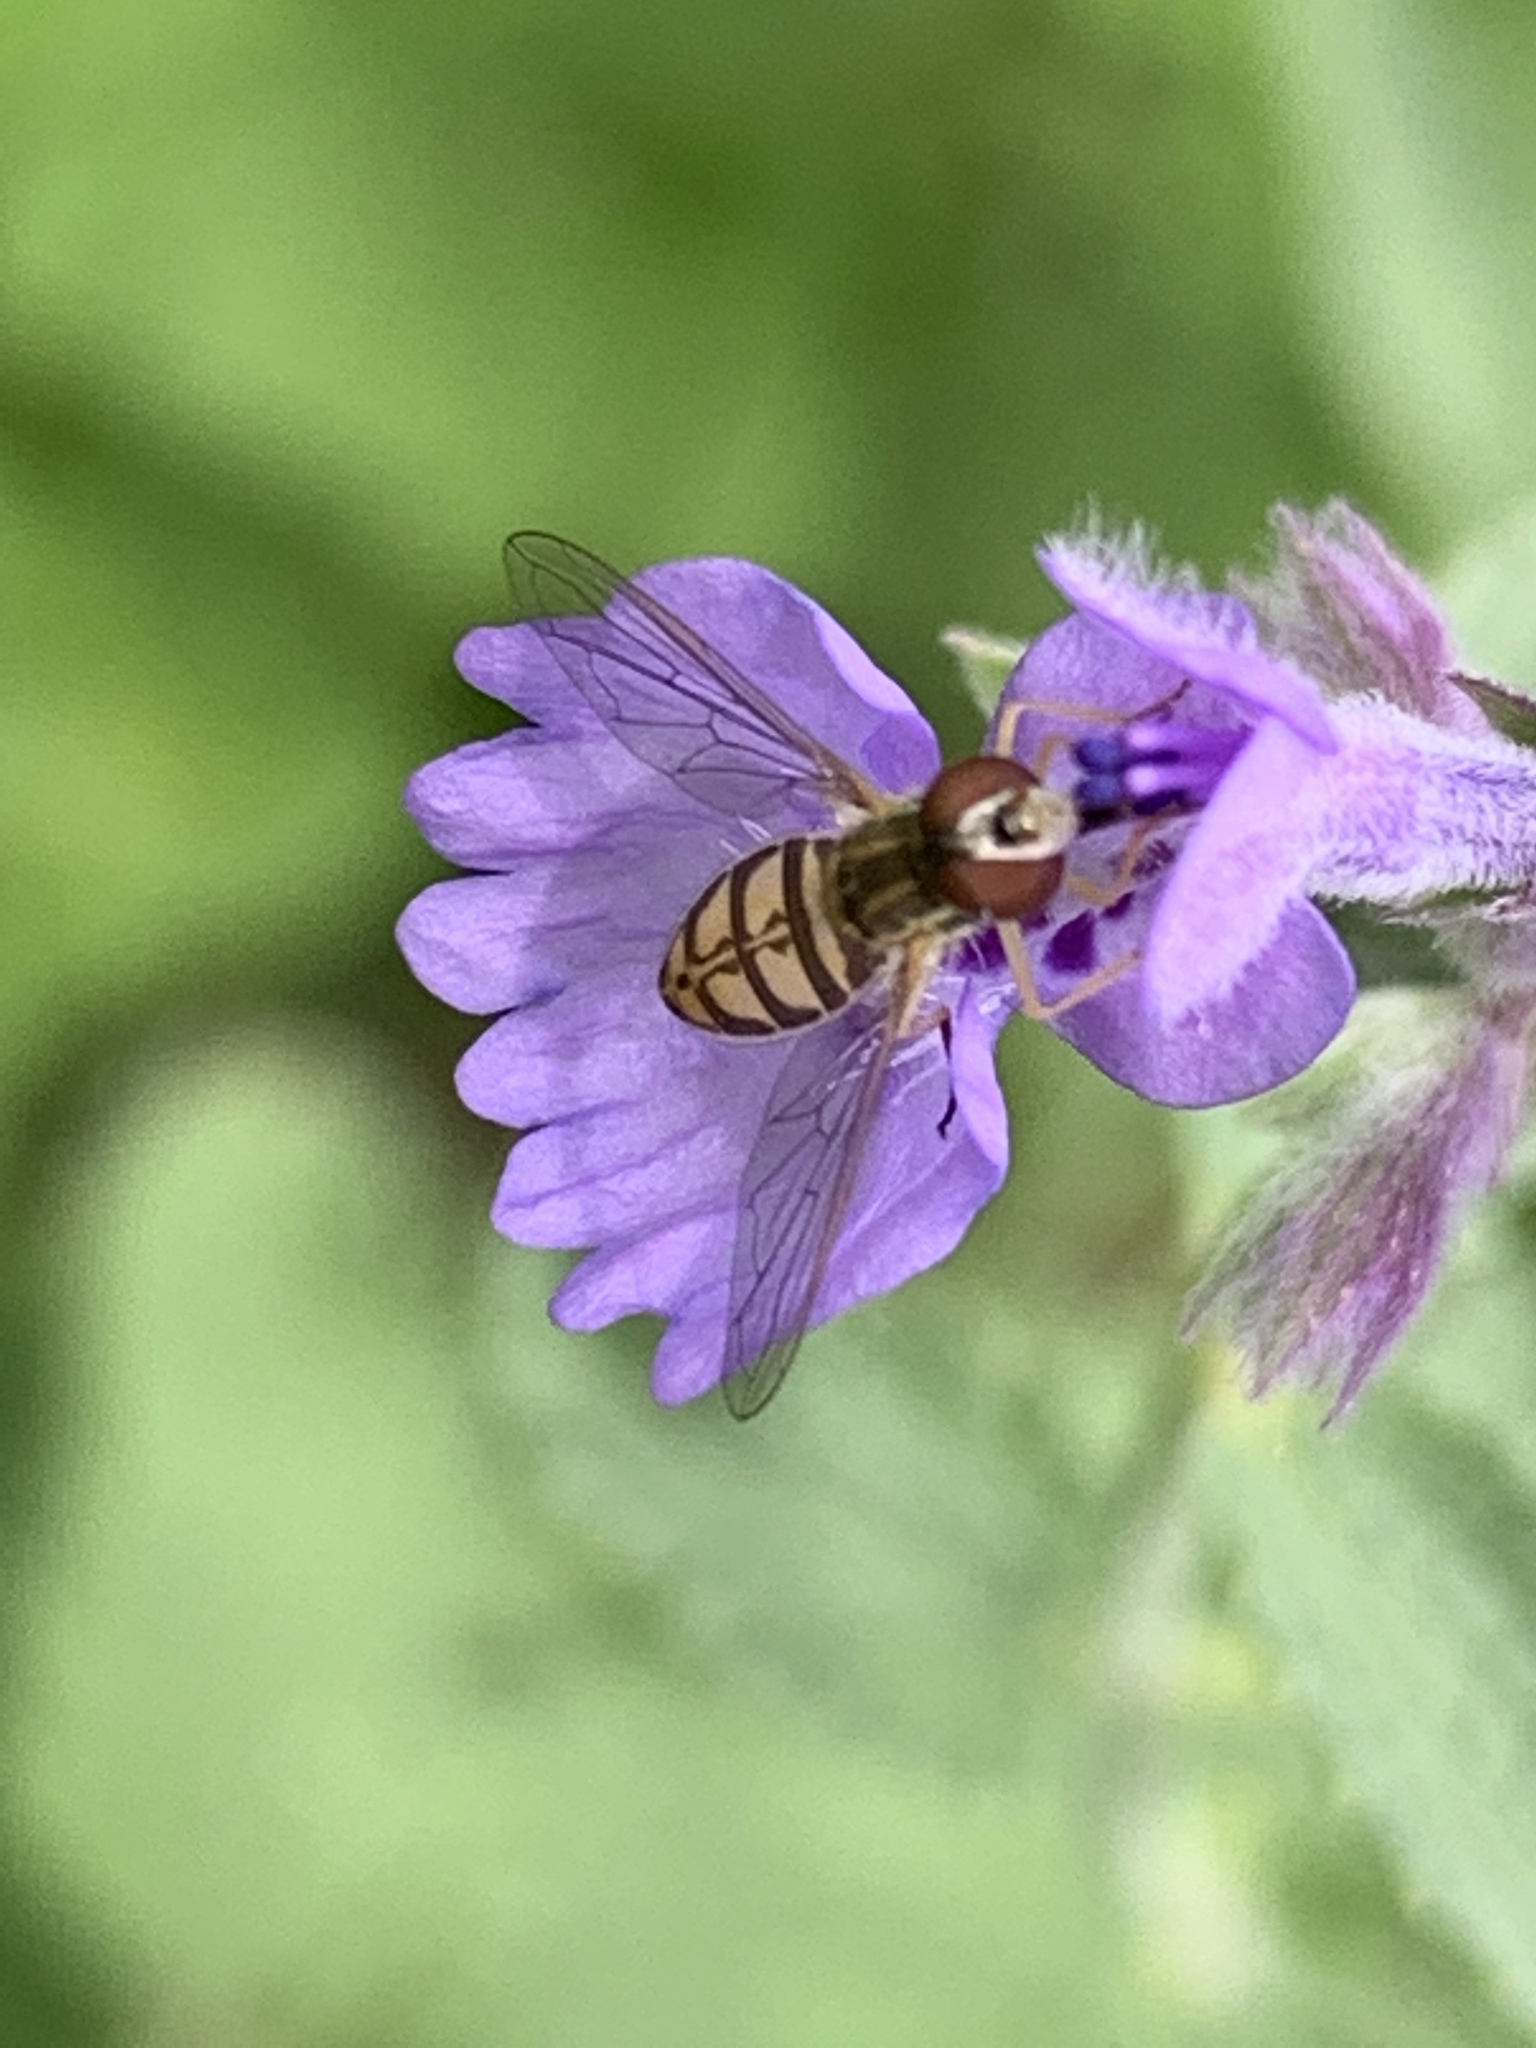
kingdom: Animalia
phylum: Arthropoda
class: Insecta
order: Diptera
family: Syrphidae
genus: Toxomerus
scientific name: Toxomerus marginatus
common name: Syrphid fly
